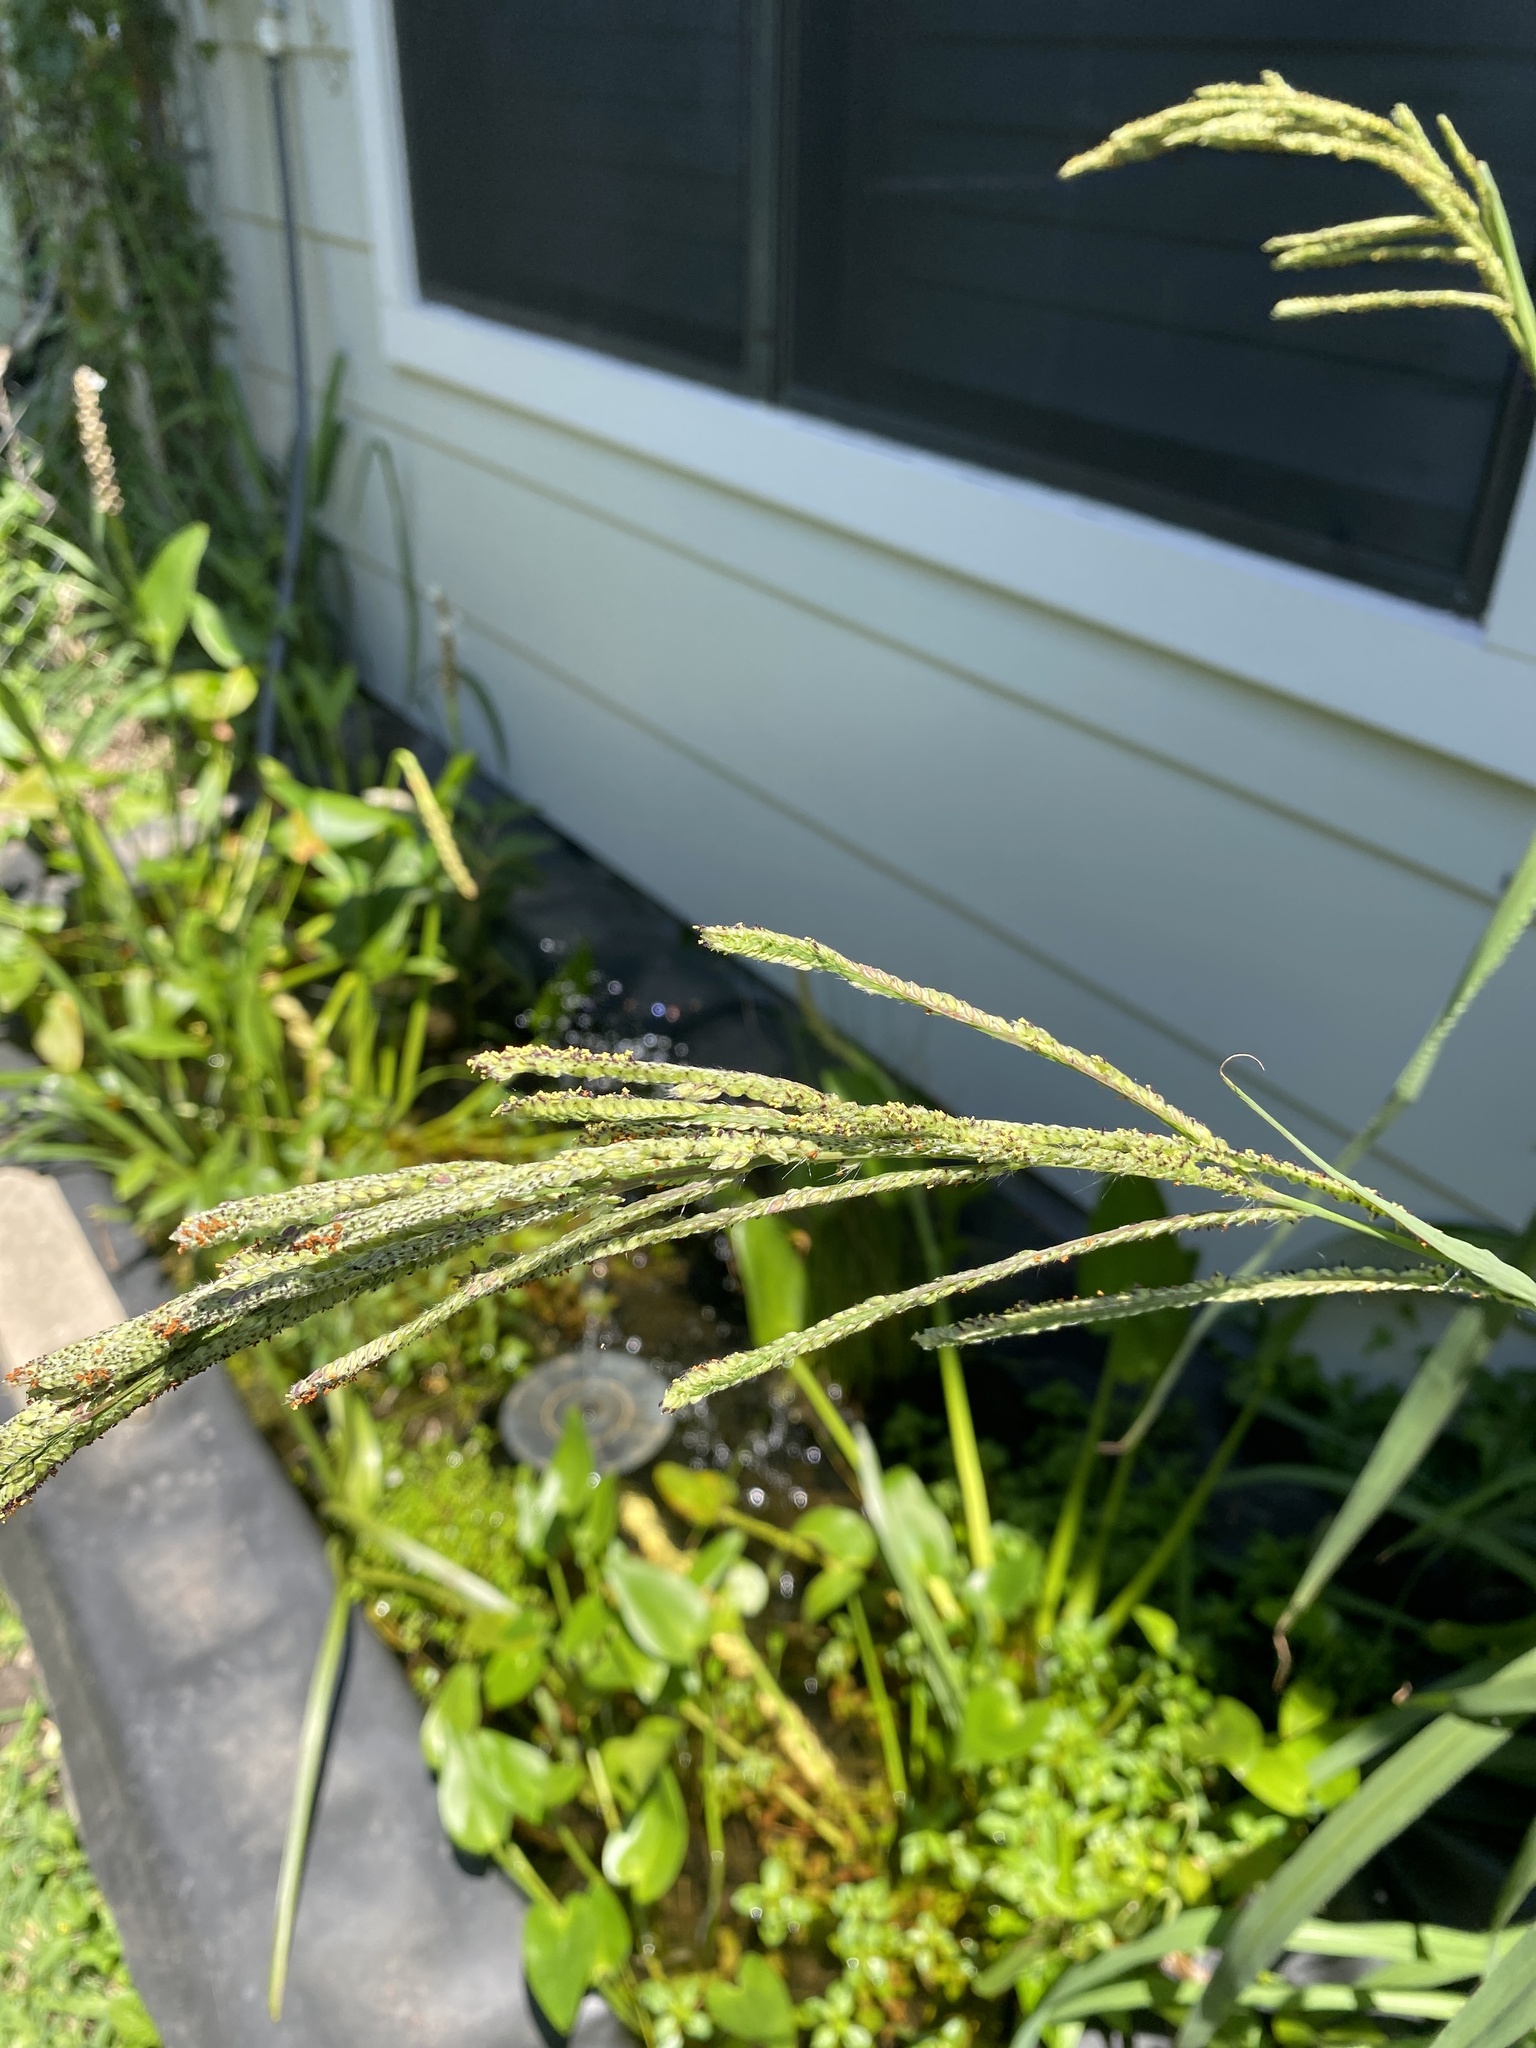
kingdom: Plantae
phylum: Tracheophyta
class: Liliopsida
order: Poales
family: Poaceae
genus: Paspalum
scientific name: Paspalum urvillei
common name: Vasey's grass
